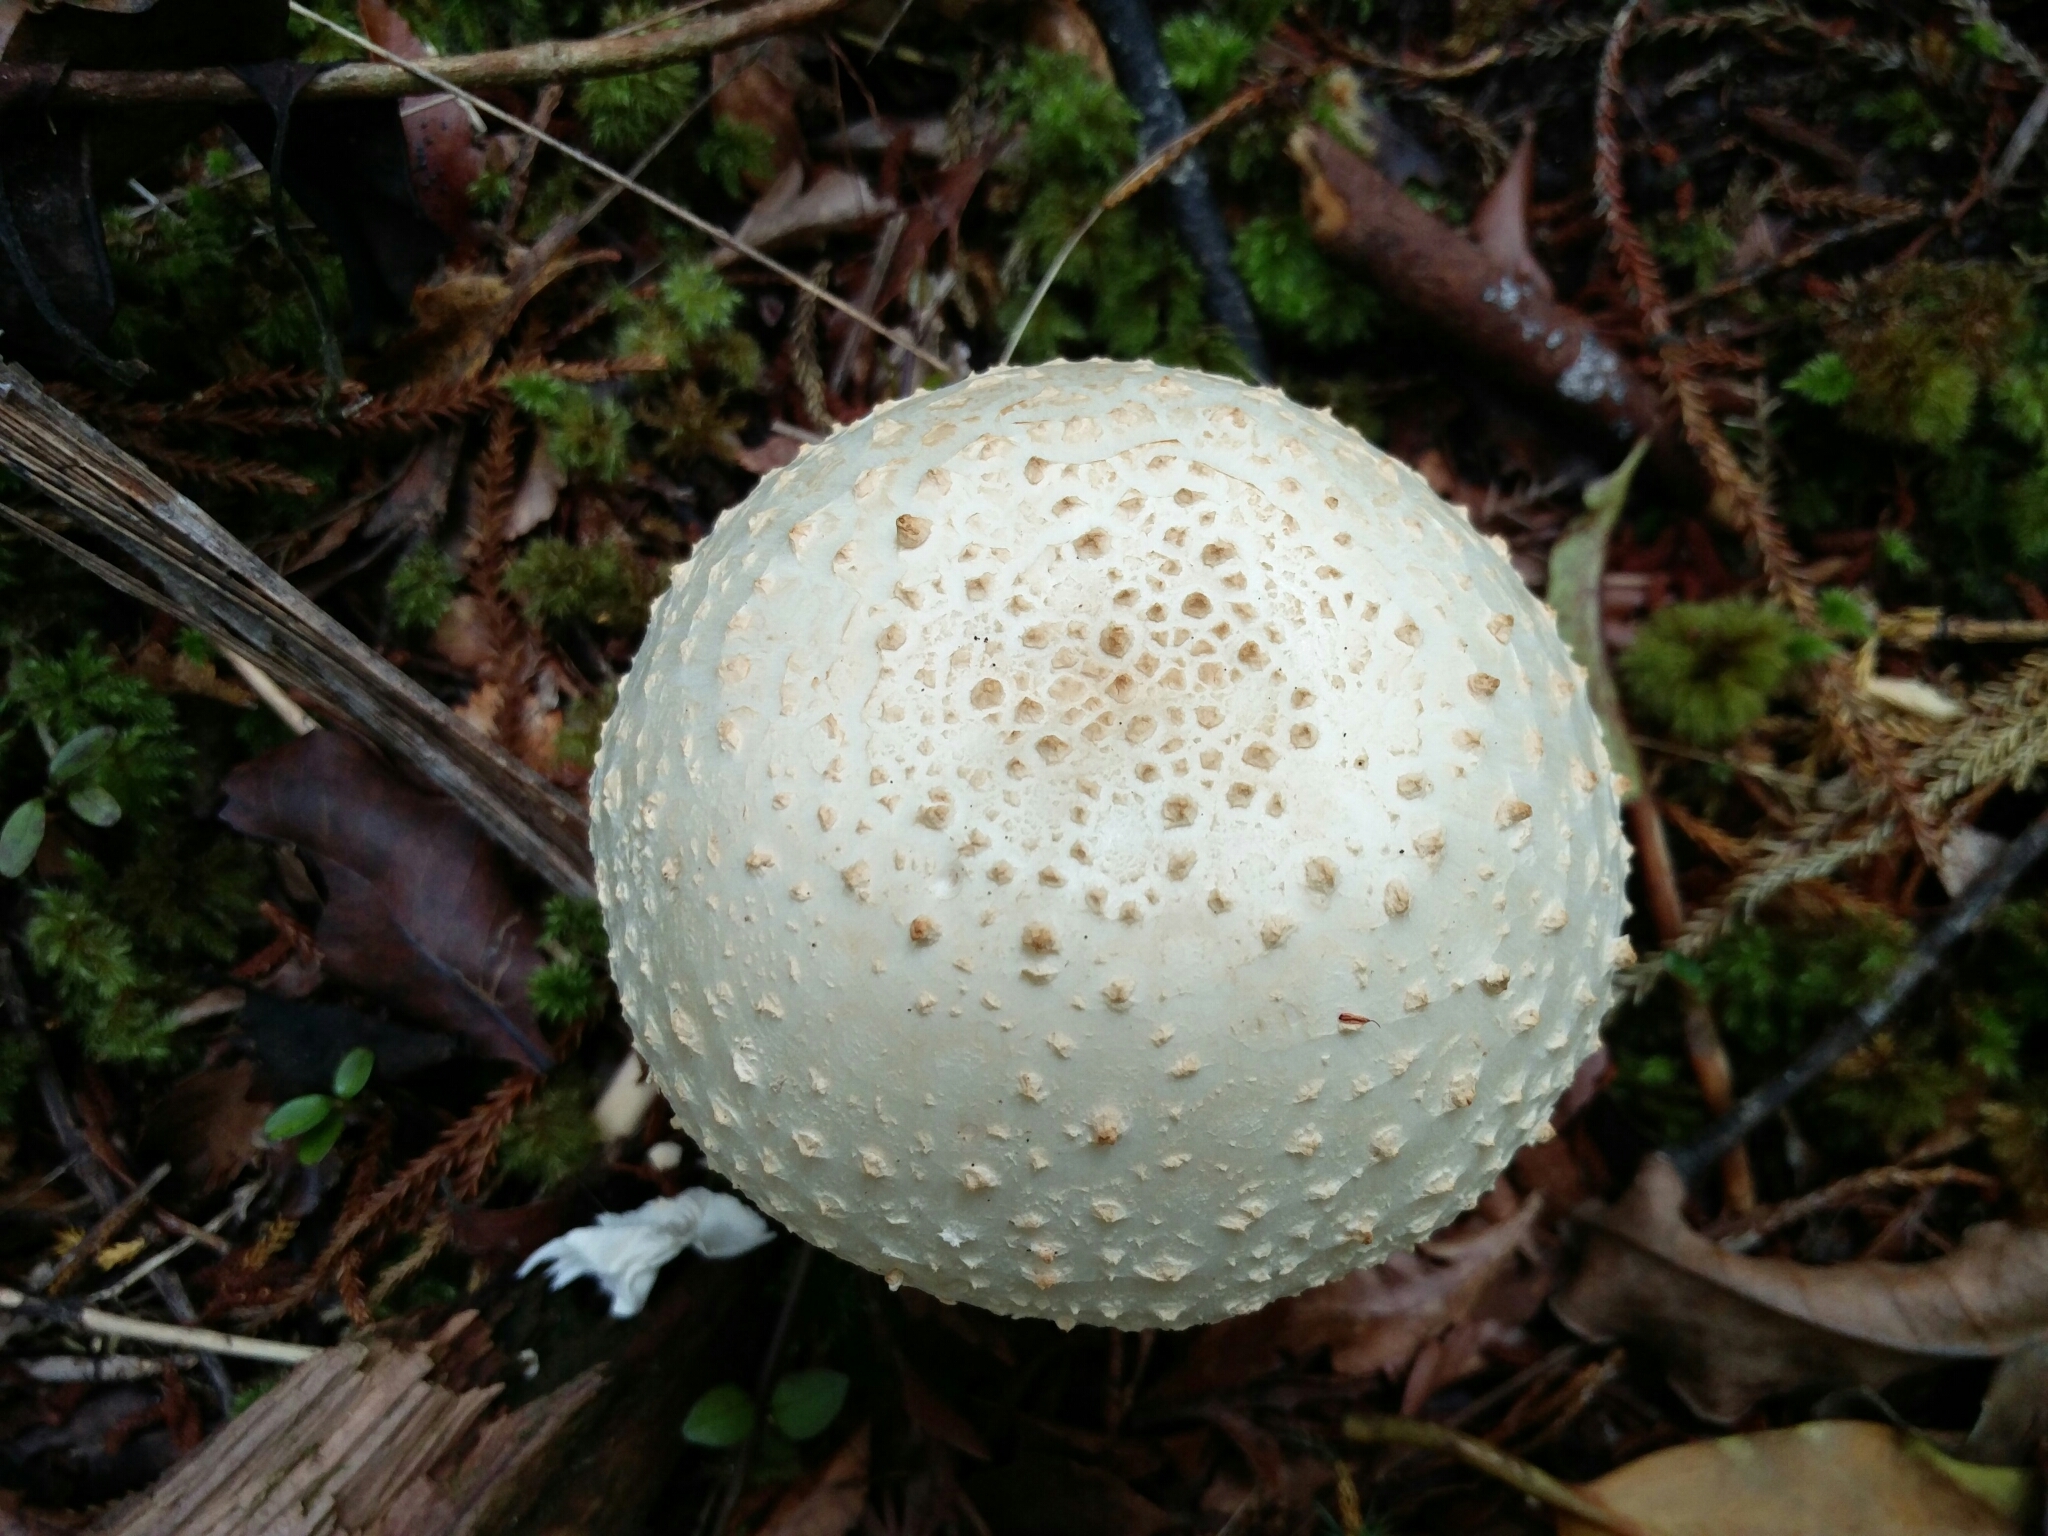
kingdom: Fungi
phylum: Basidiomycota
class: Agaricomycetes
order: Agaricales
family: Amanitaceae
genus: Amanita
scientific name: Amanita pareparina
